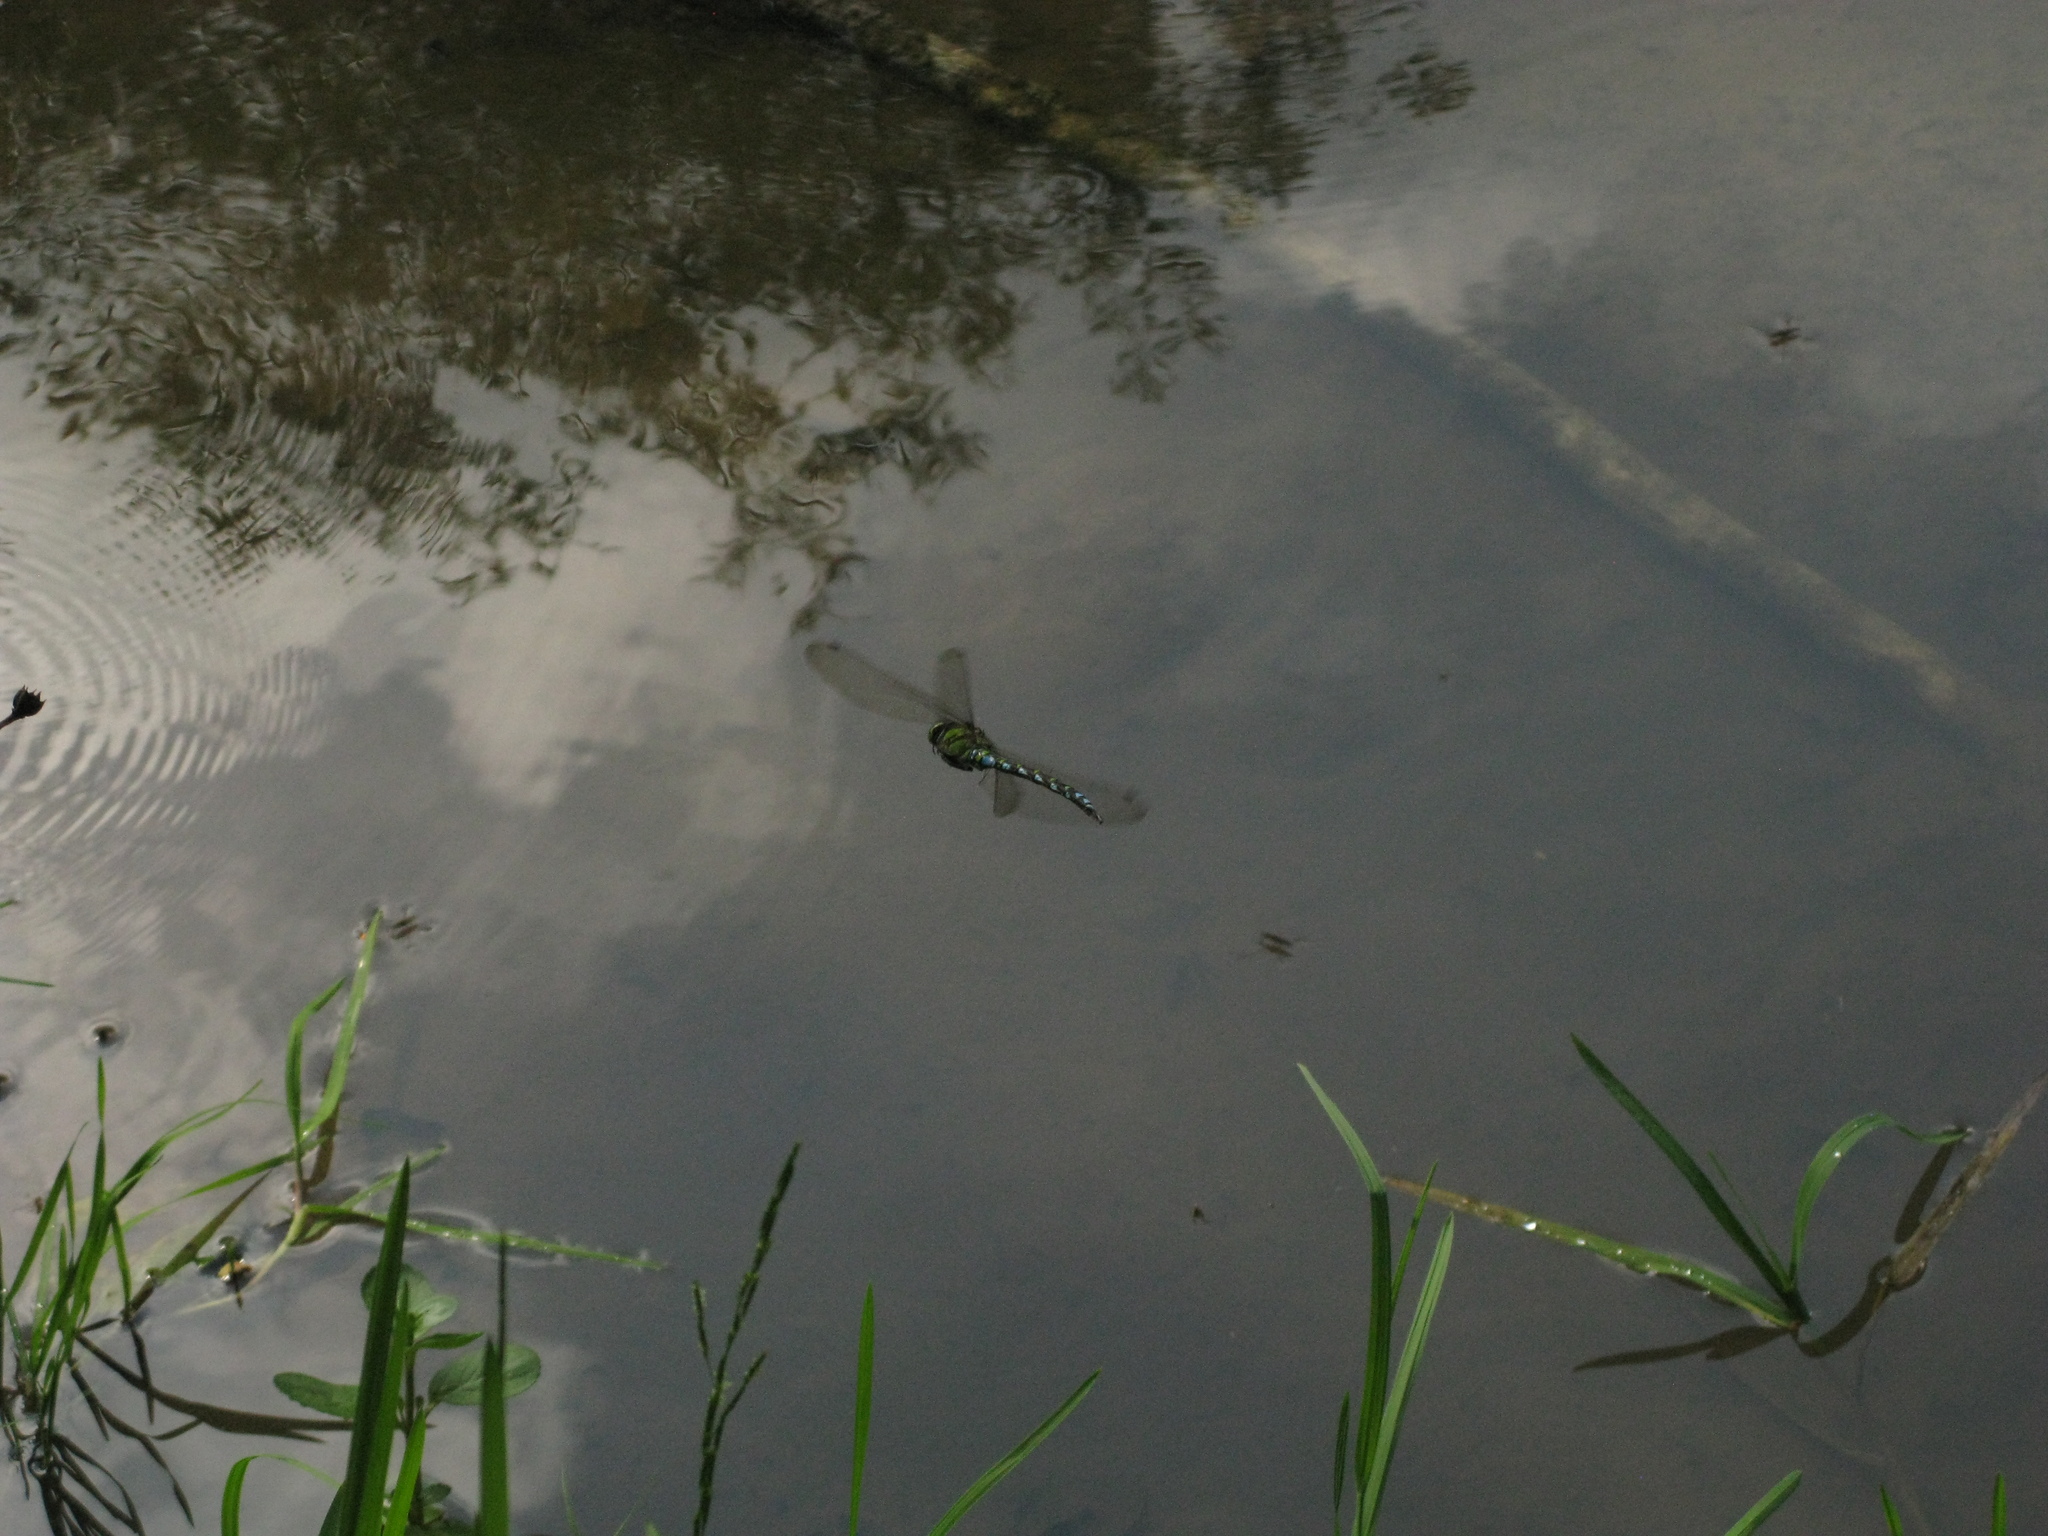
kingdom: Animalia
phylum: Arthropoda
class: Insecta
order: Odonata
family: Aeshnidae
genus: Aeshna
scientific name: Aeshna cyanea
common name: Southern hawker
